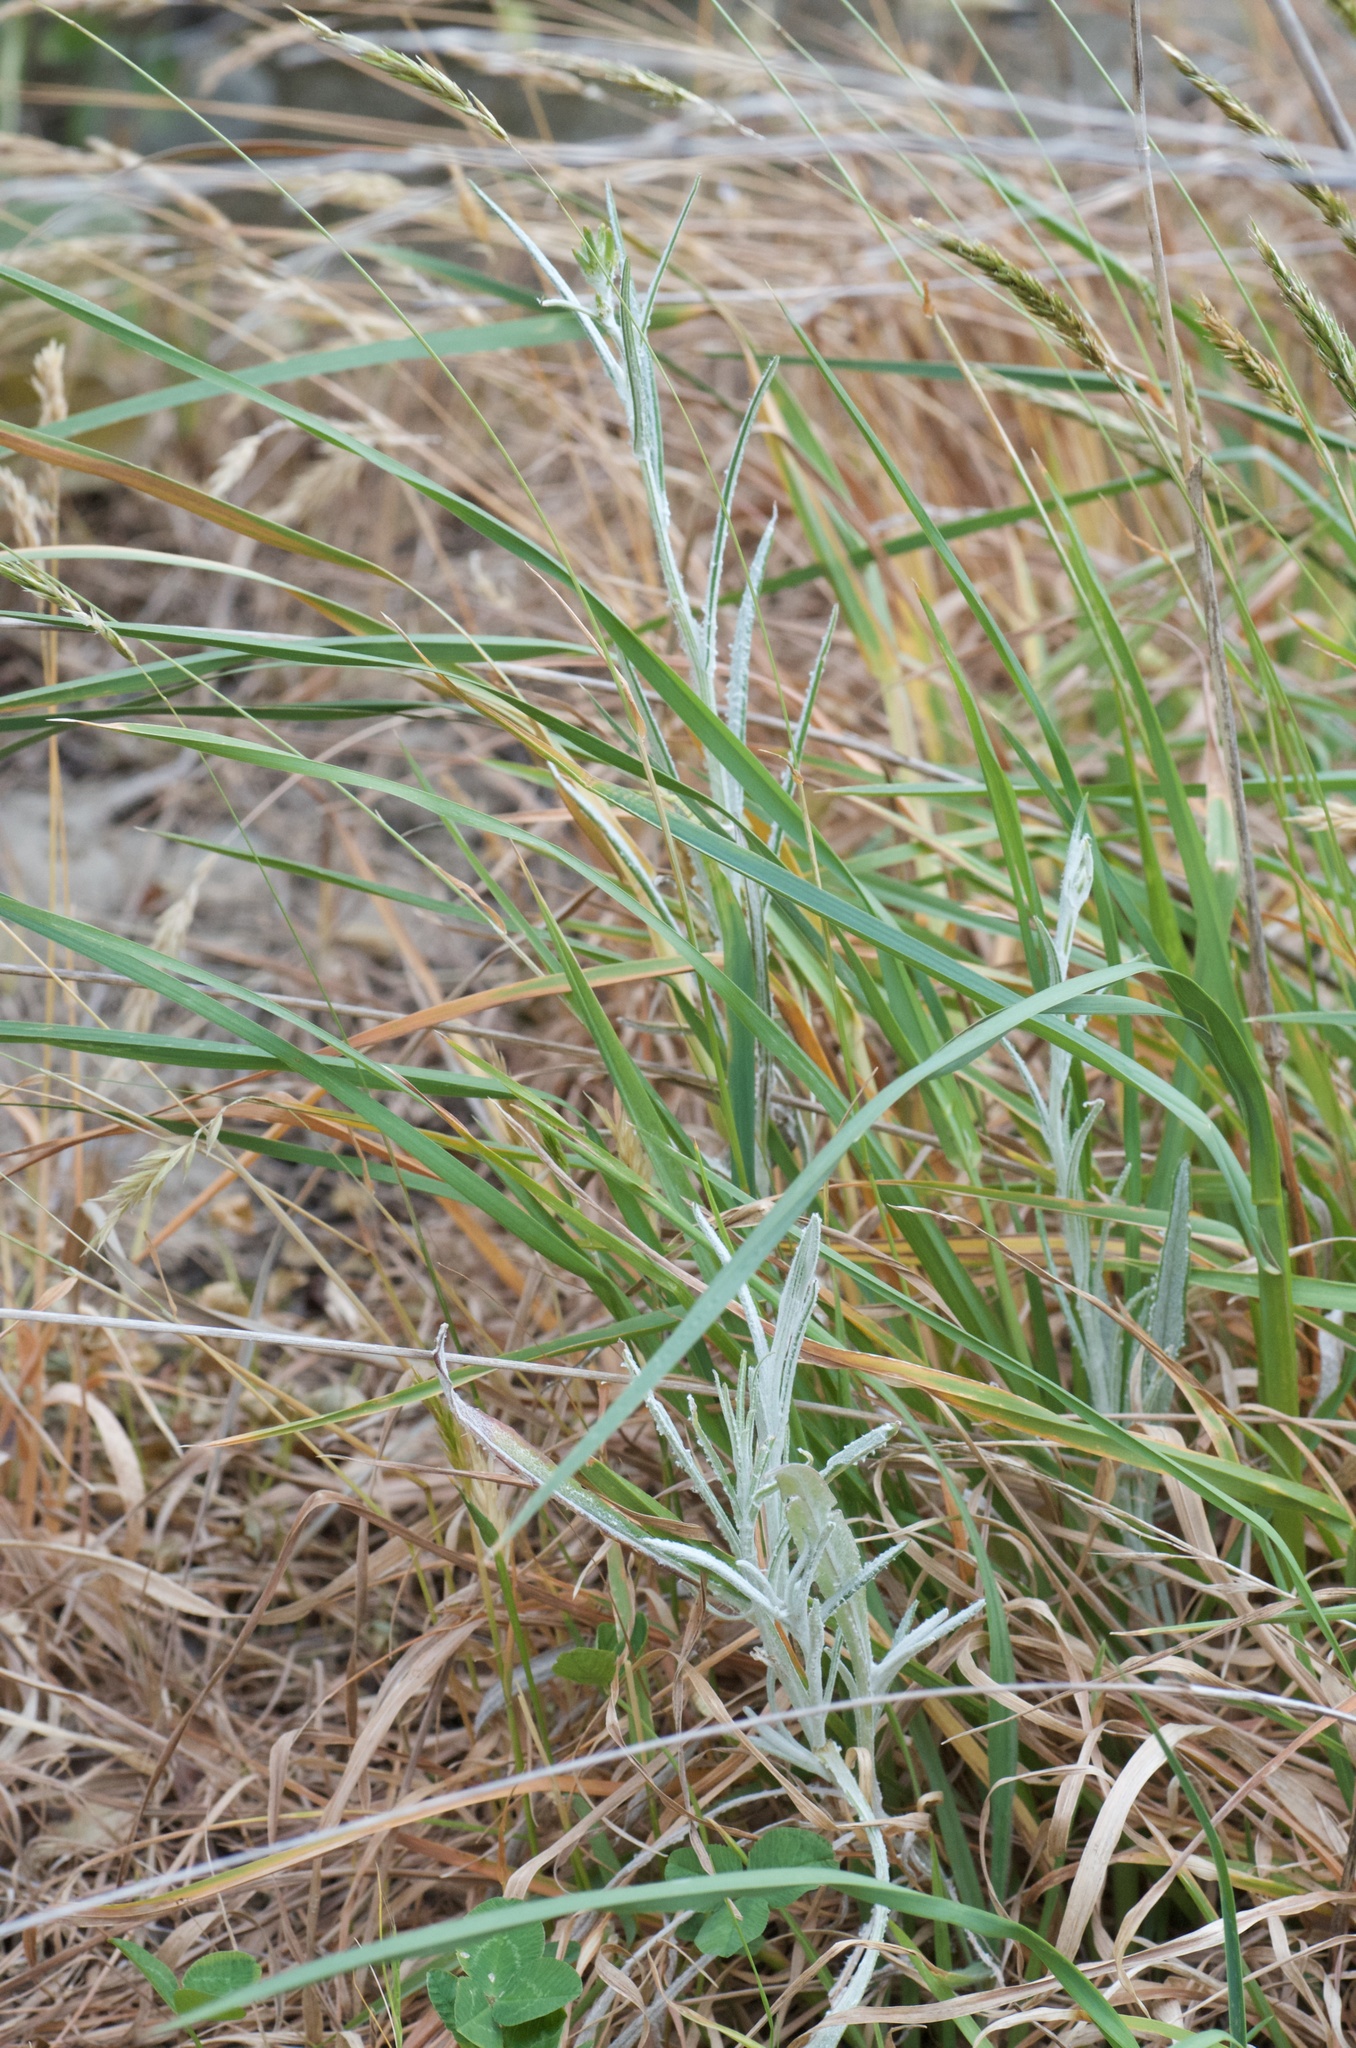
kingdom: Plantae
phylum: Tracheophyta
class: Magnoliopsida
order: Asterales
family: Asteraceae
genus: Senecio
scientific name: Senecio quadridentatus
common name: Cotton fireweed
